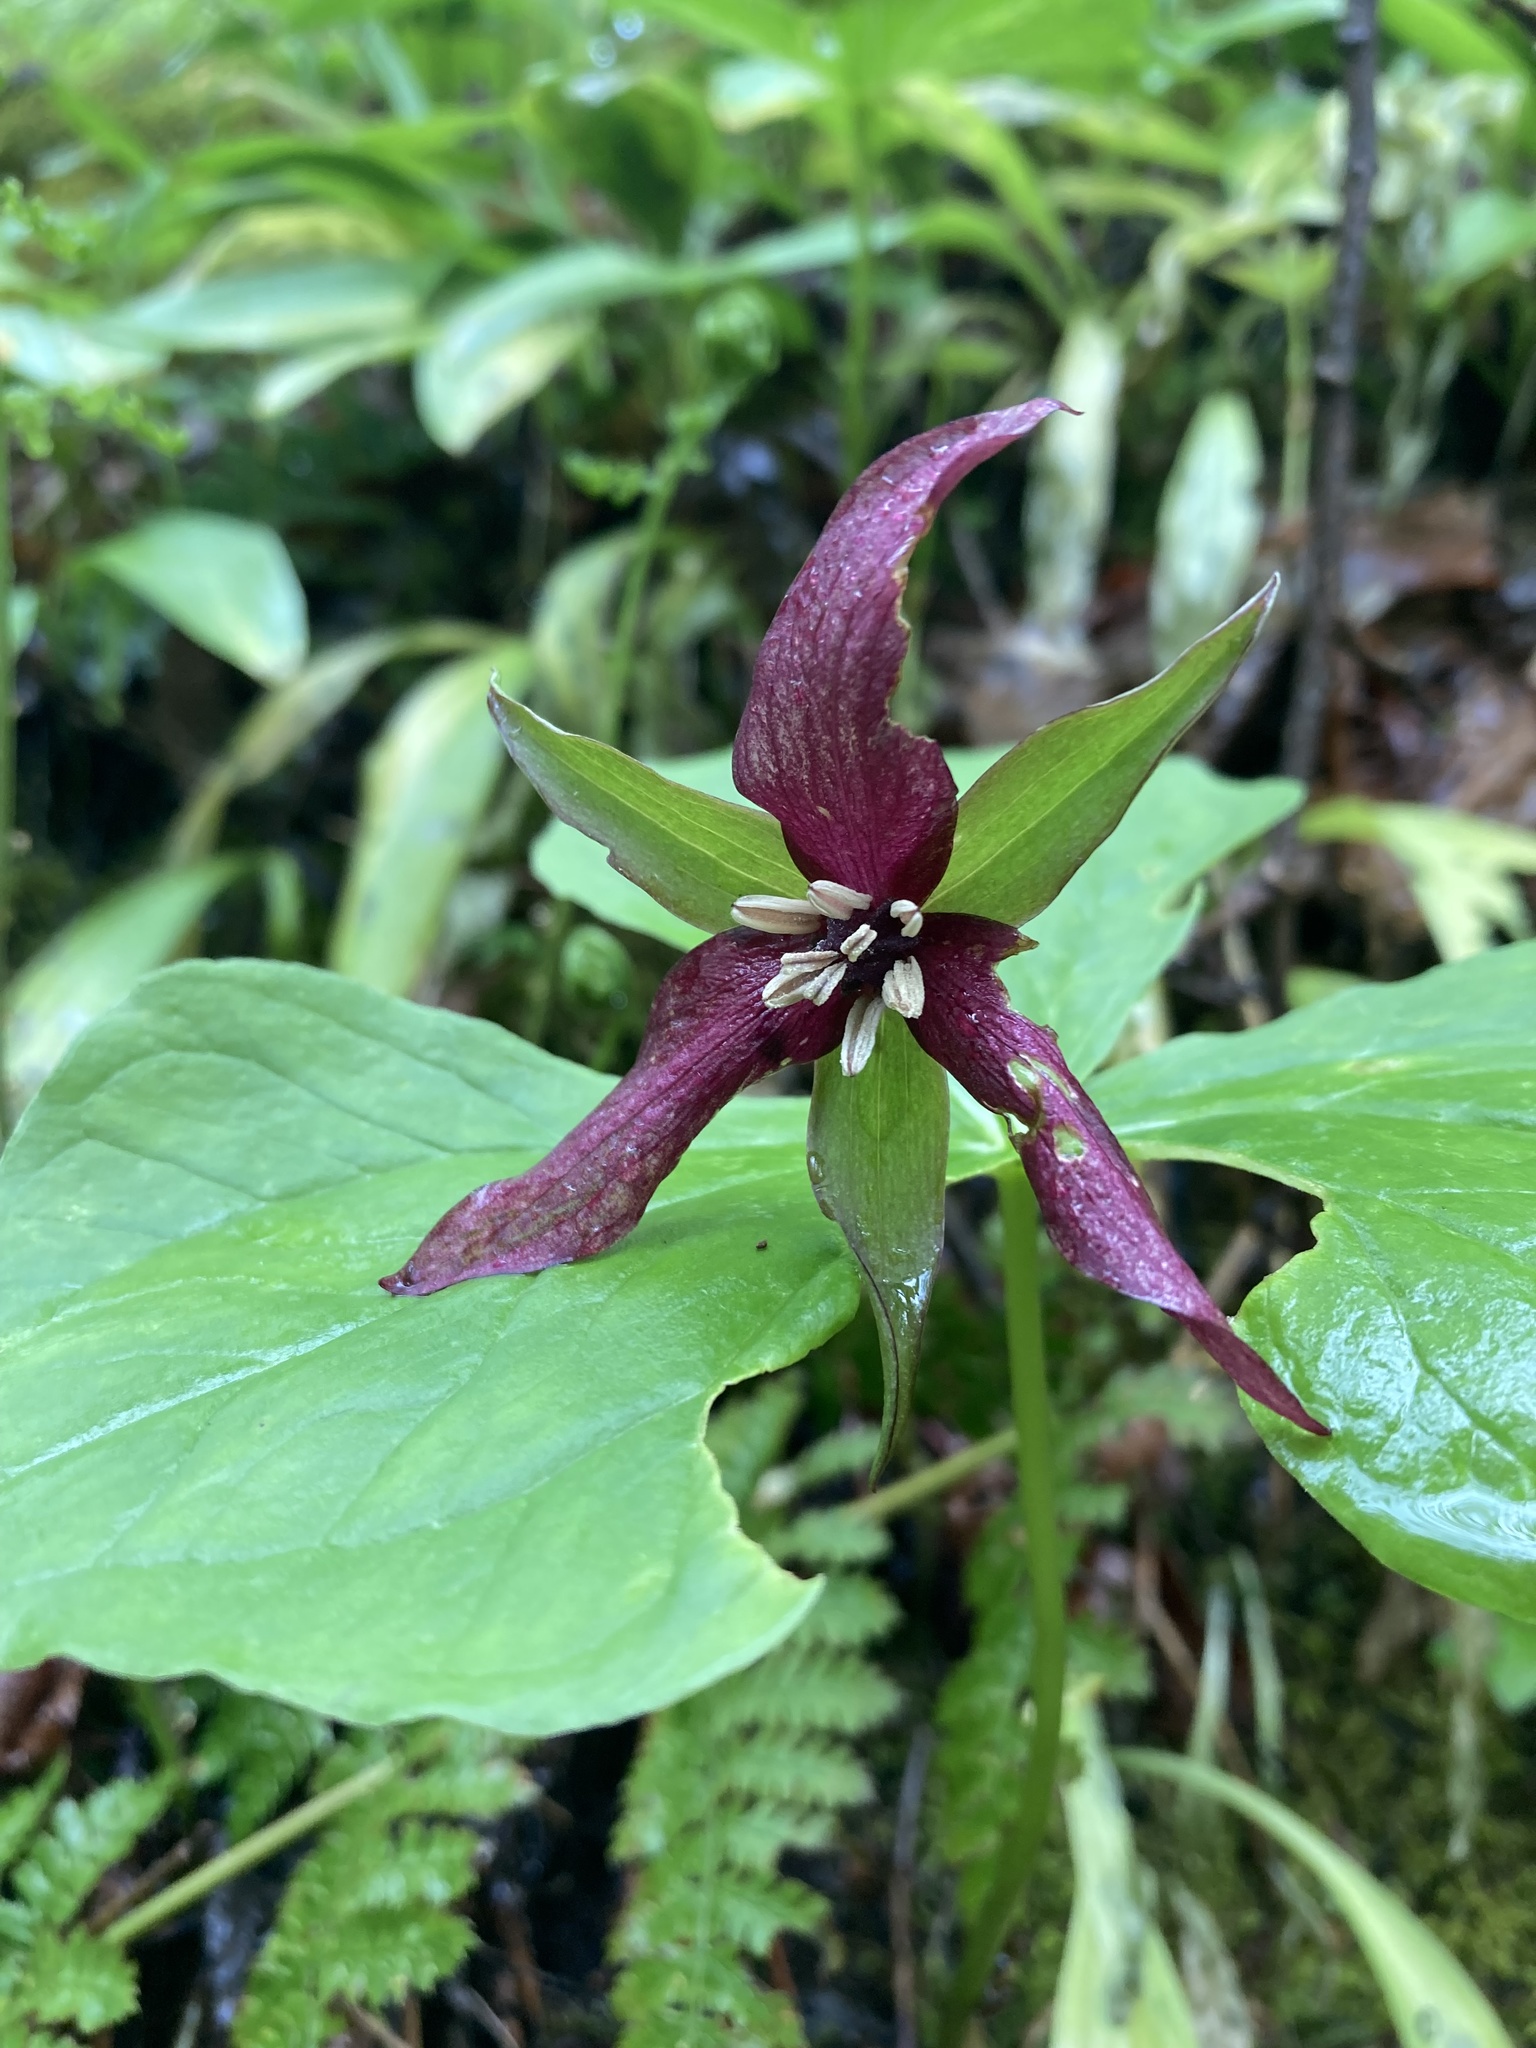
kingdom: Plantae
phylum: Tracheophyta
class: Liliopsida
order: Liliales
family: Melanthiaceae
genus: Trillium
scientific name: Trillium erectum
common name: Purple trillium
